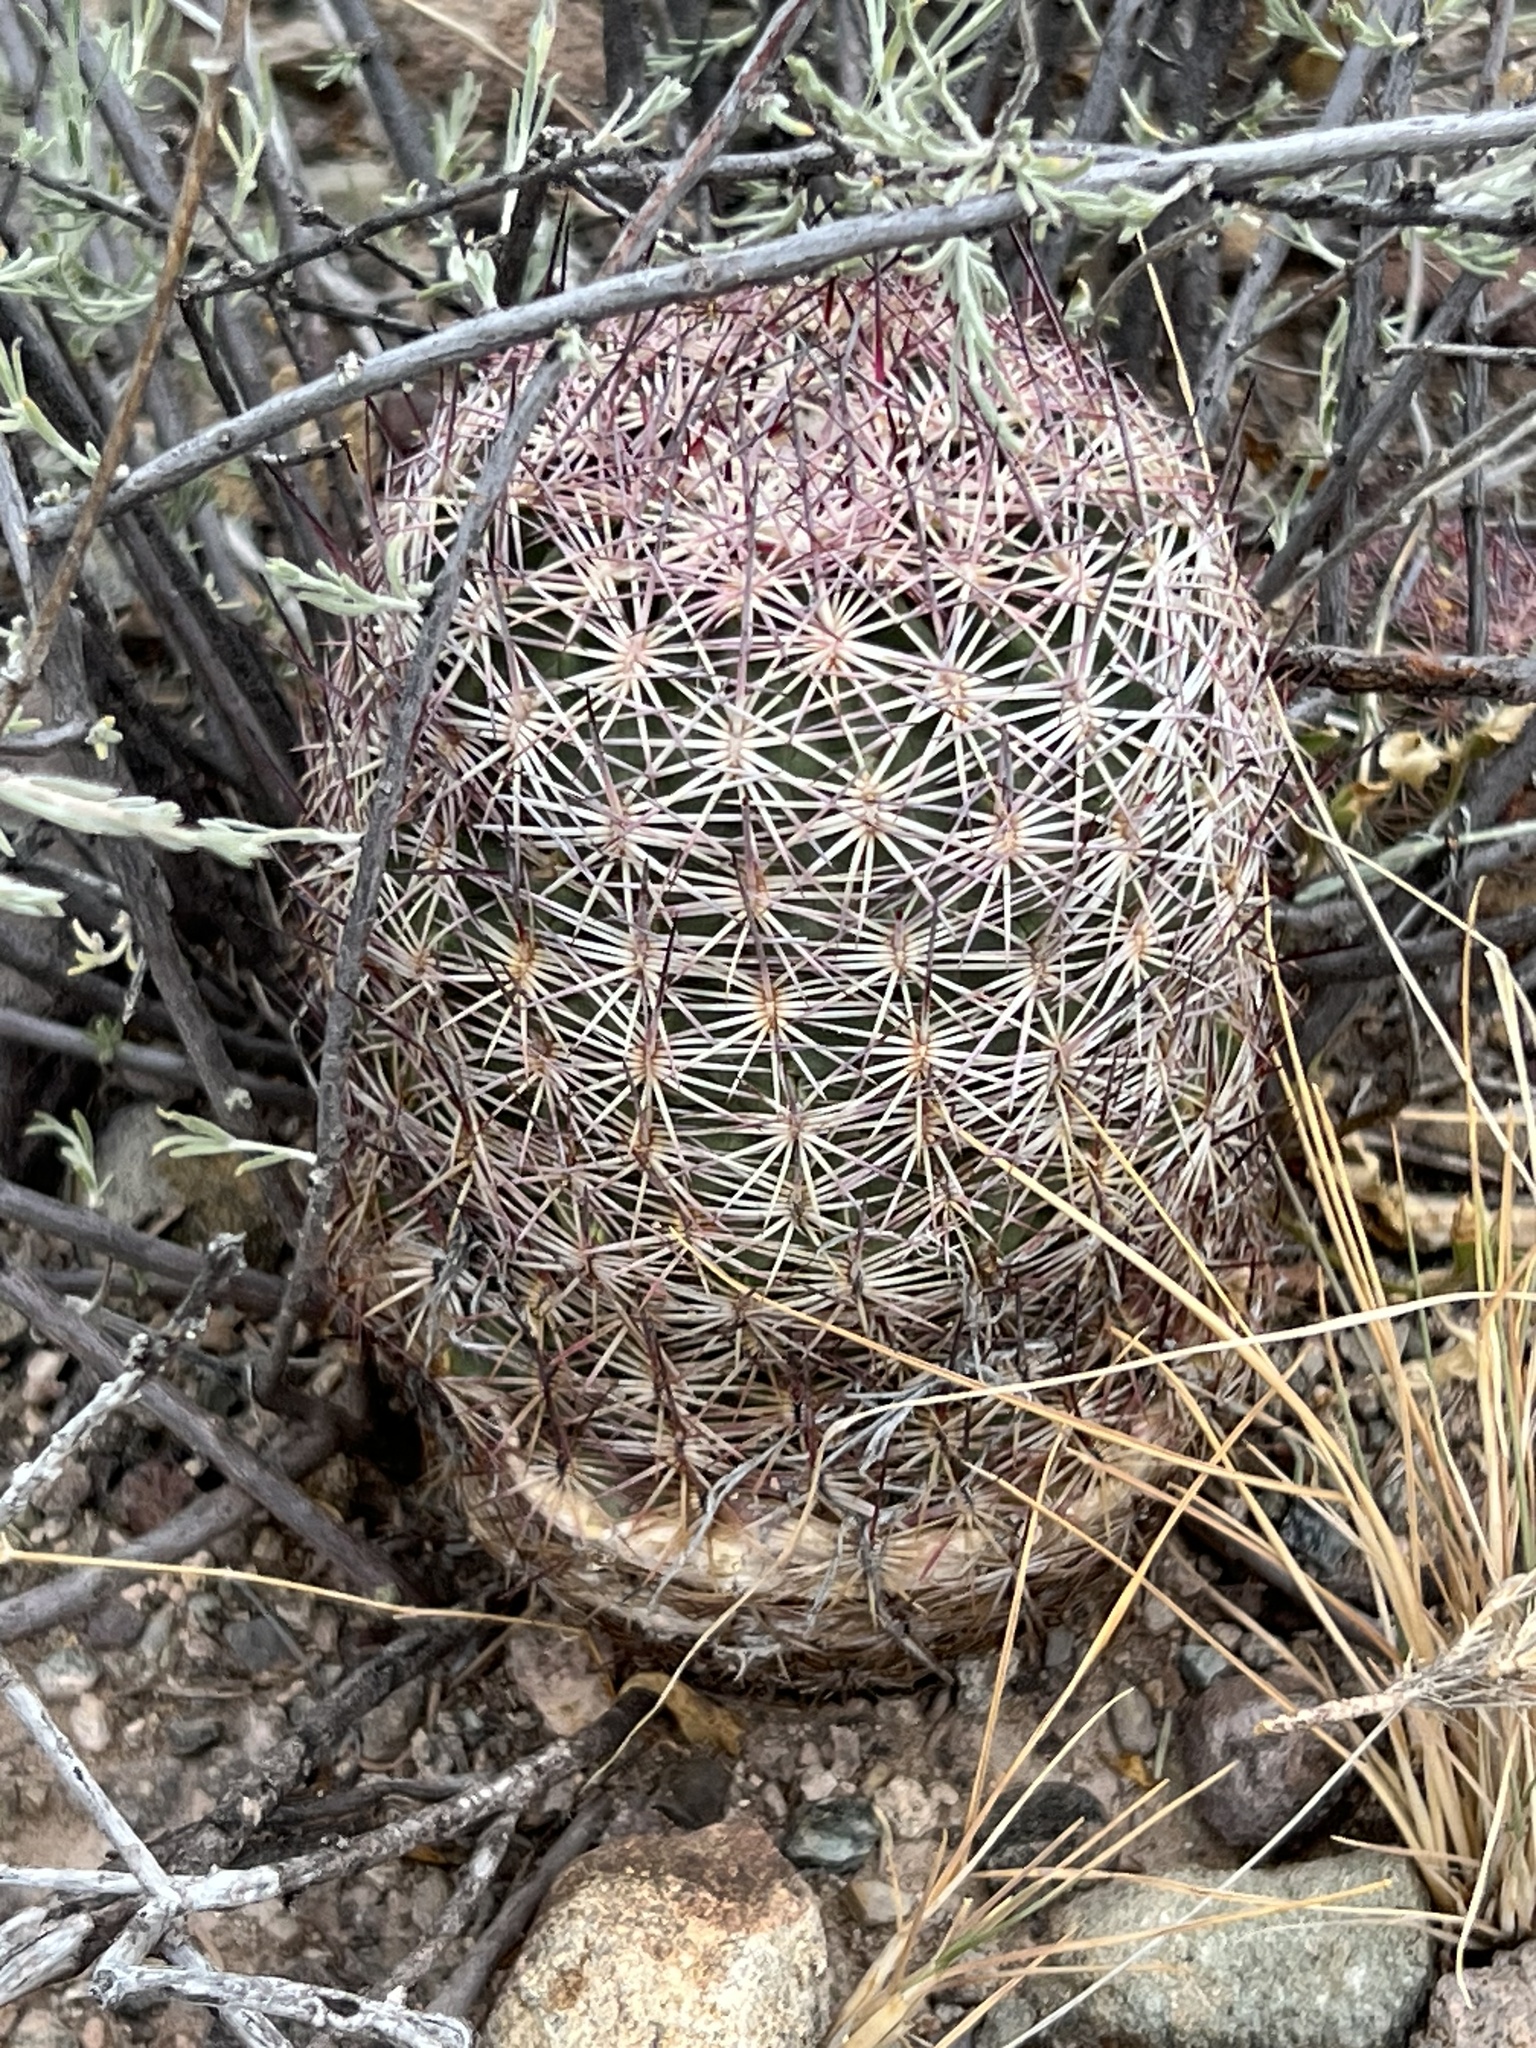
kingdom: Plantae
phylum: Tracheophyta
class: Magnoliopsida
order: Caryophyllales
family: Cactaceae
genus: Sclerocactus
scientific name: Sclerocactus johnsonii
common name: Eight-spine fishhook cactus
